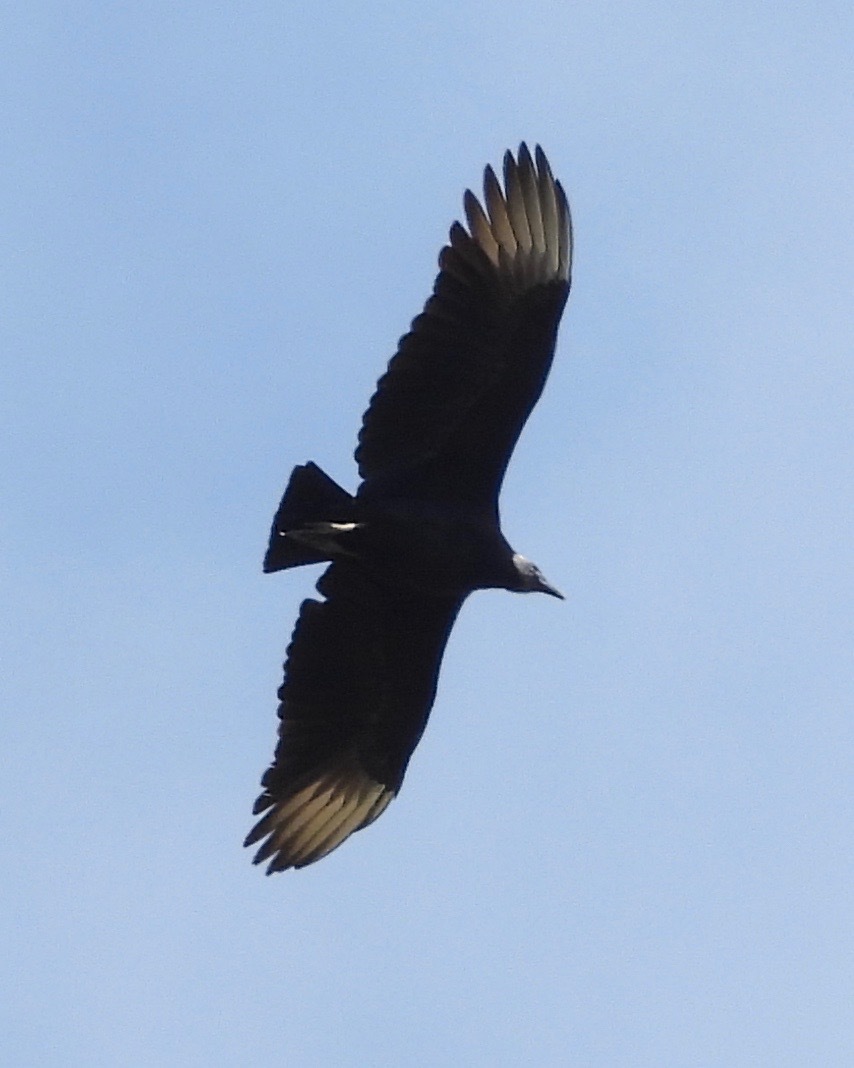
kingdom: Animalia
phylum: Chordata
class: Aves
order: Accipitriformes
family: Cathartidae
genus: Coragyps
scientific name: Coragyps atratus
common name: Black vulture
